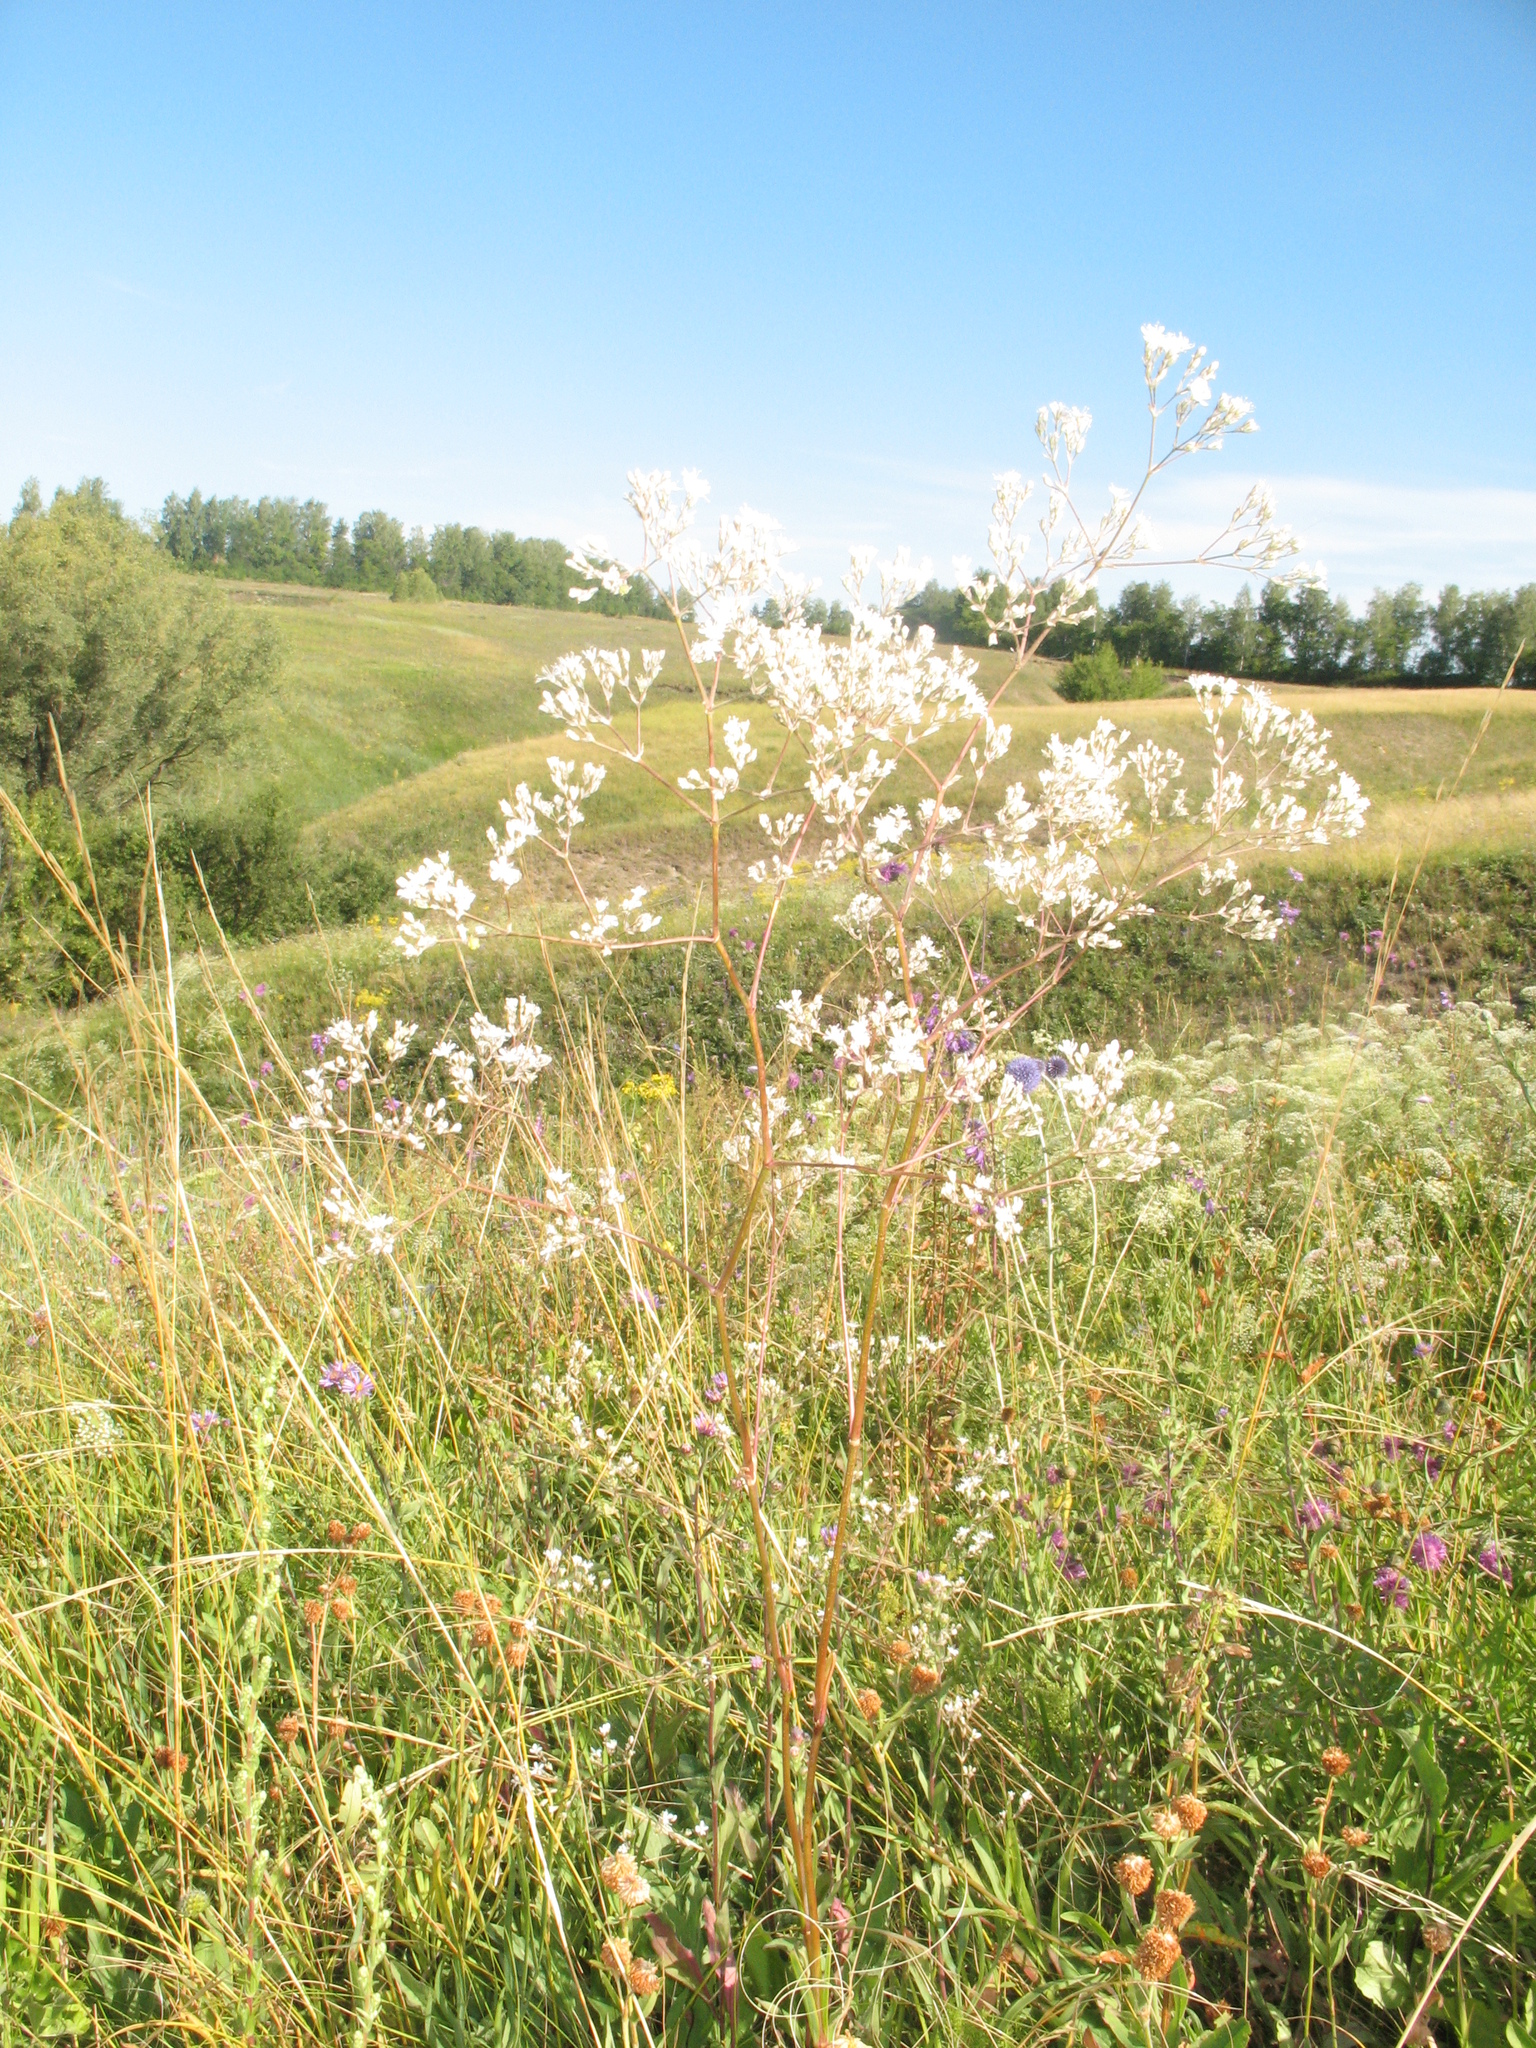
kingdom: Plantae
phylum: Tracheophyta
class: Magnoliopsida
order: Caryophyllales
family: Caryophyllaceae
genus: Gypsophila
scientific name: Gypsophila altissima
